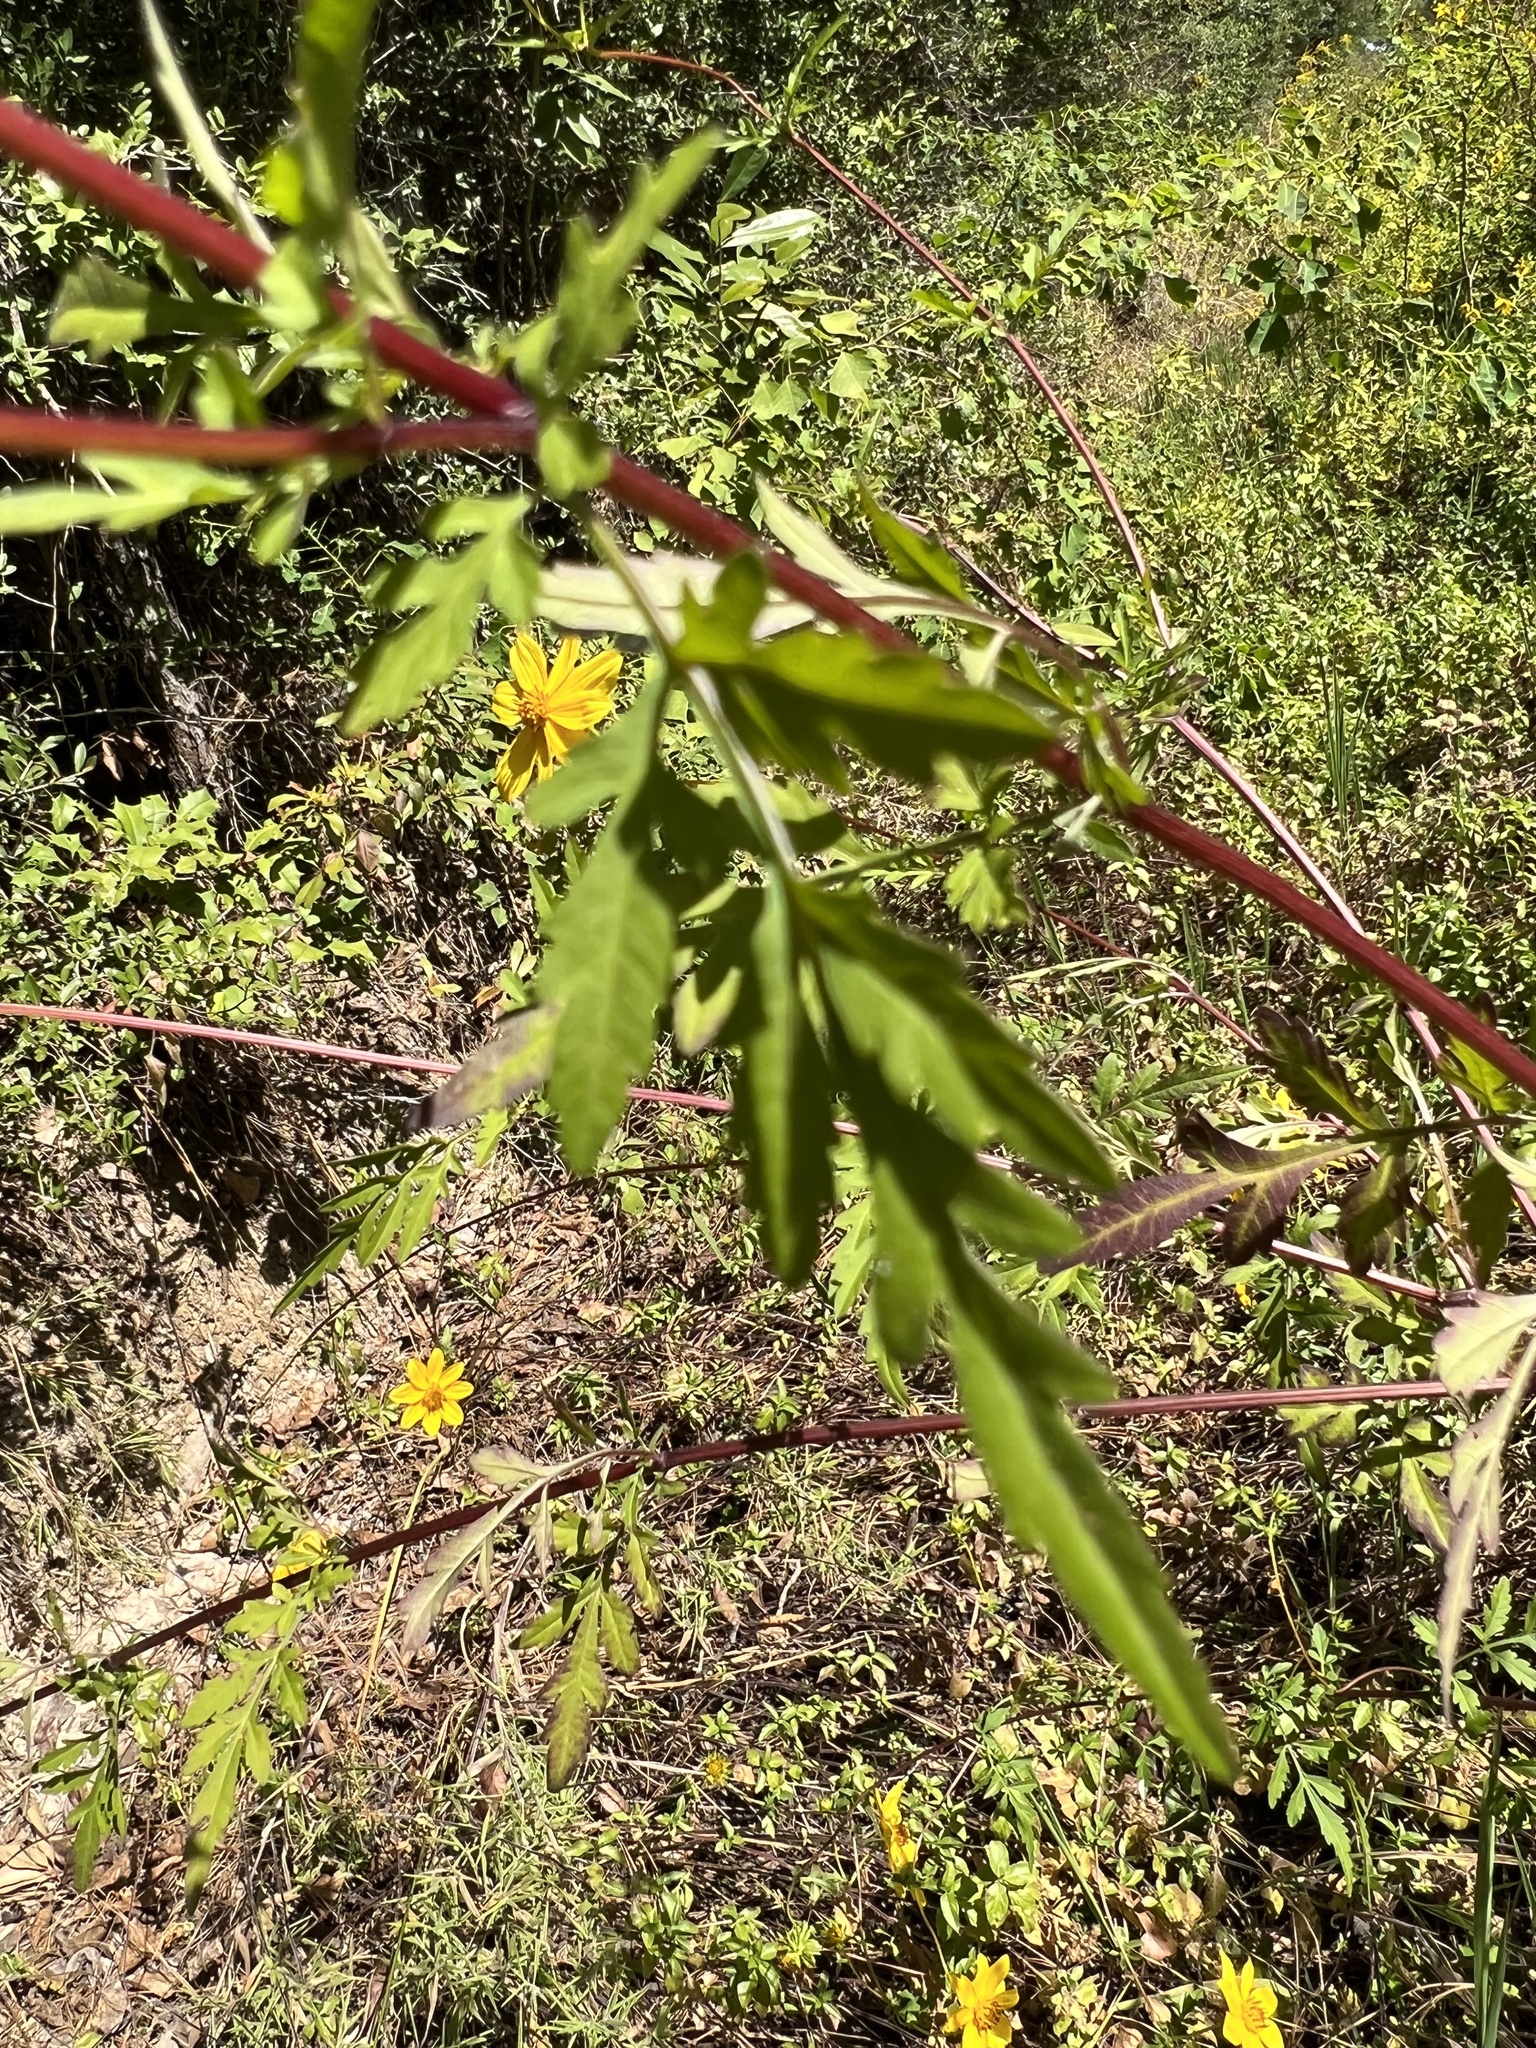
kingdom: Plantae
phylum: Tracheophyta
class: Magnoliopsida
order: Asterales
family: Asteraceae
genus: Bidens
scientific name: Bidens aristosa
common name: Western tickseed
